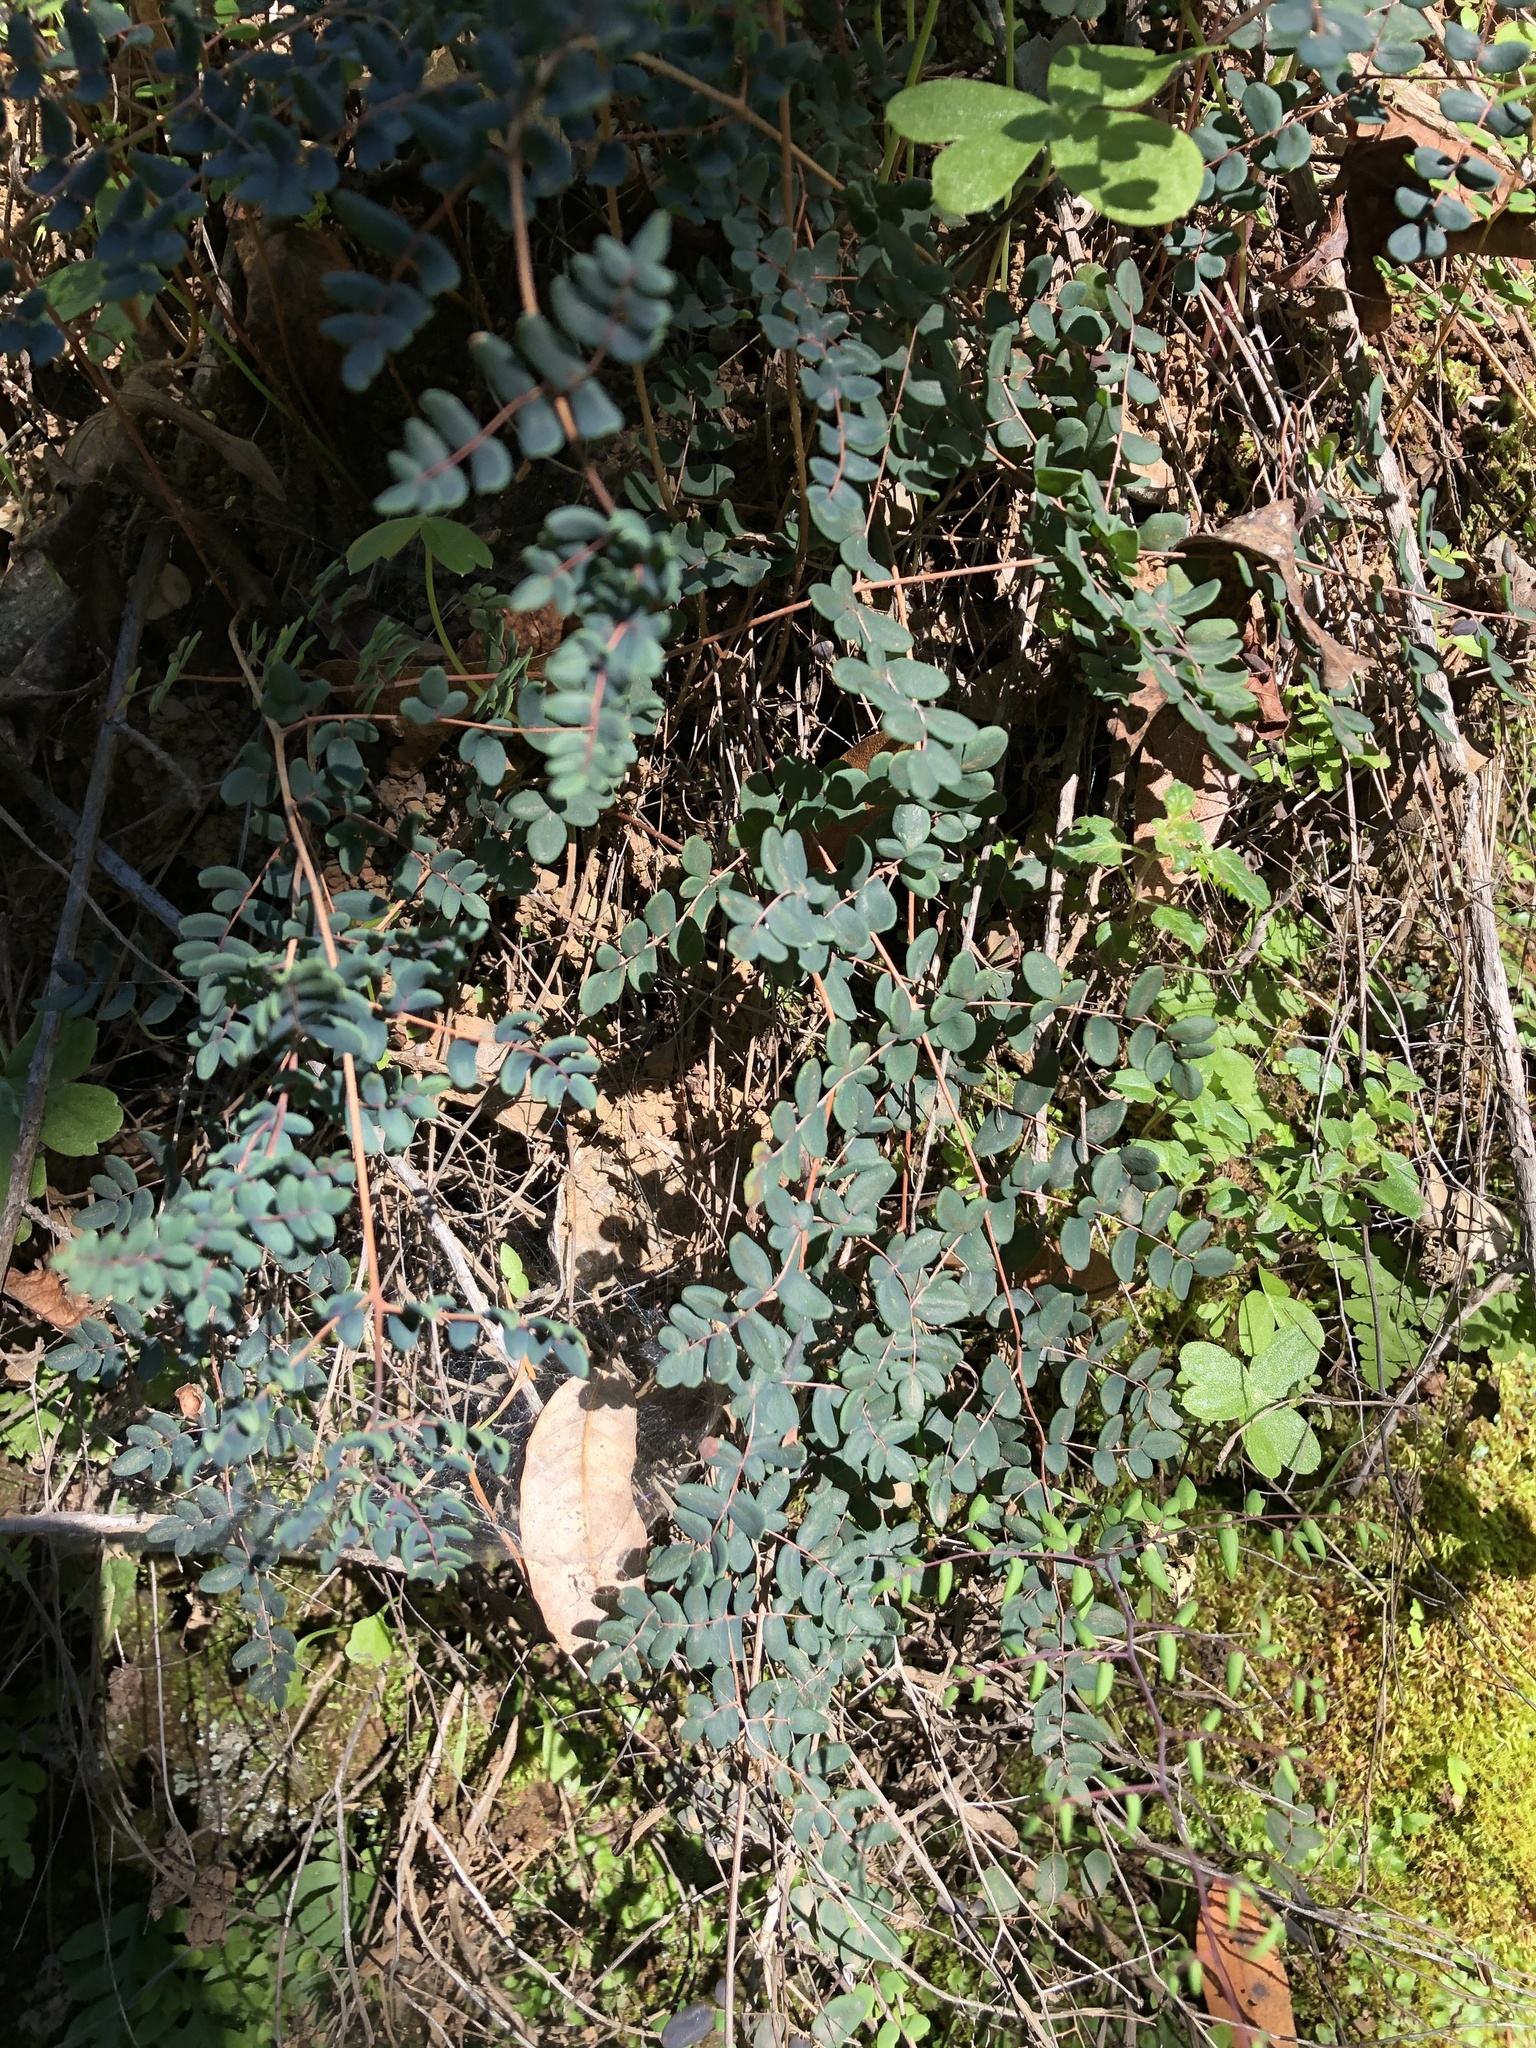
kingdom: Plantae
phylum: Tracheophyta
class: Polypodiopsida
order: Polypodiales
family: Pteridaceae
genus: Pellaea
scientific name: Pellaea andromedifolia
